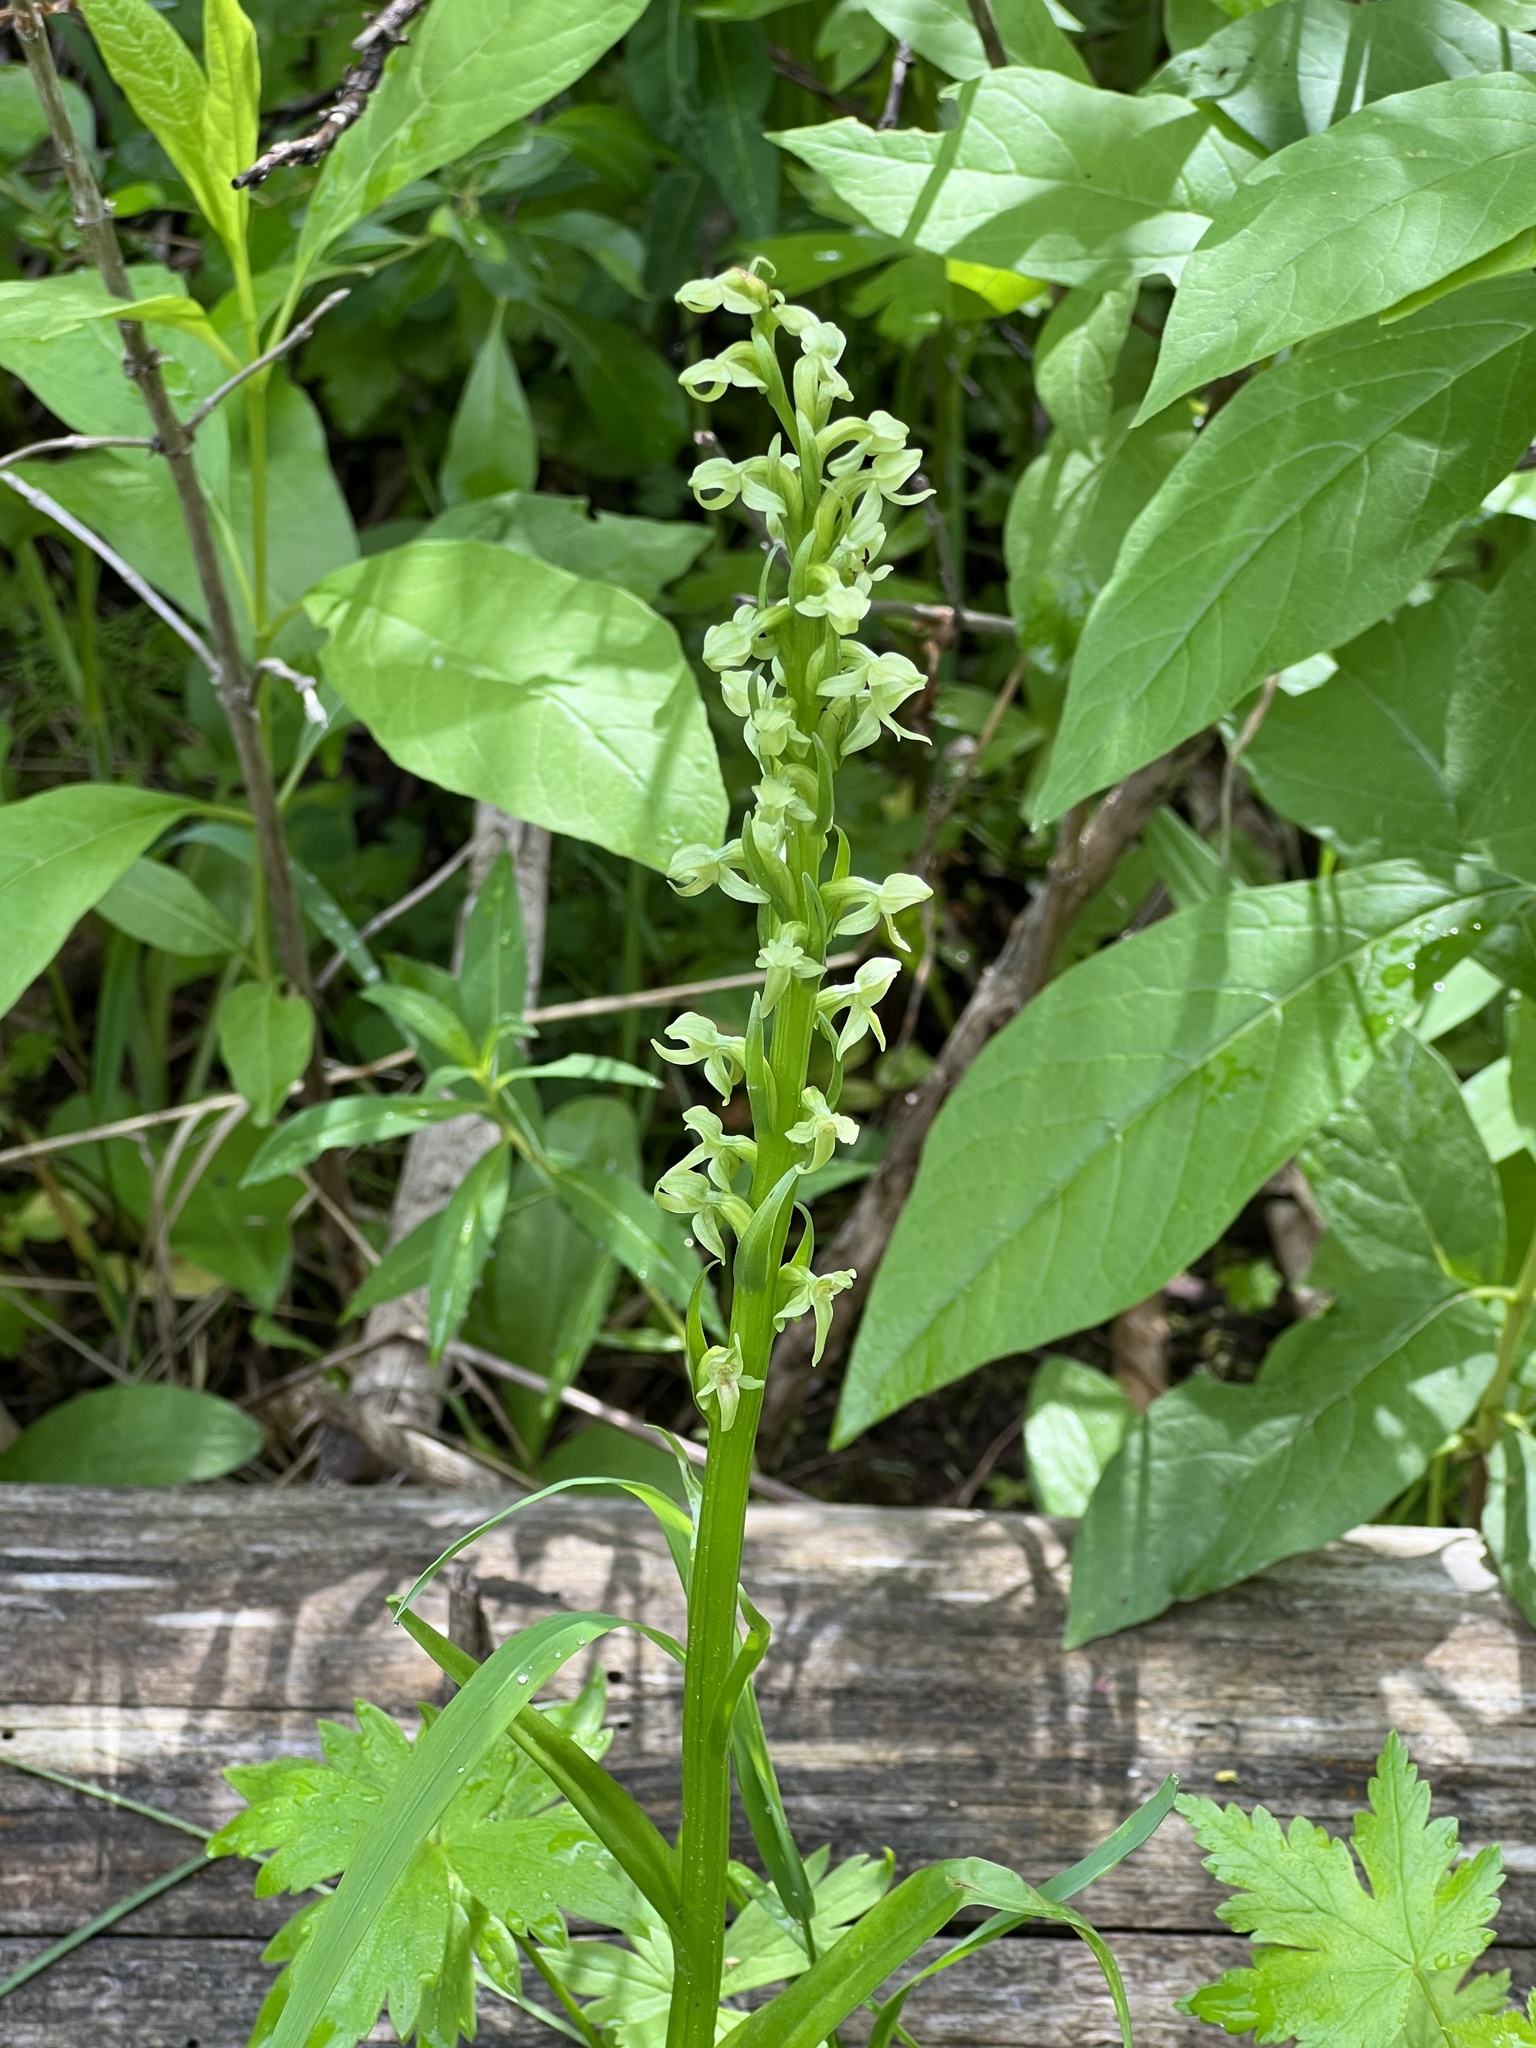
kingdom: Plantae
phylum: Tracheophyta
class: Liliopsida
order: Asparagales
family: Orchidaceae
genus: Platanthera
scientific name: Platanthera huronensis
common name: Fragrant green orchid
